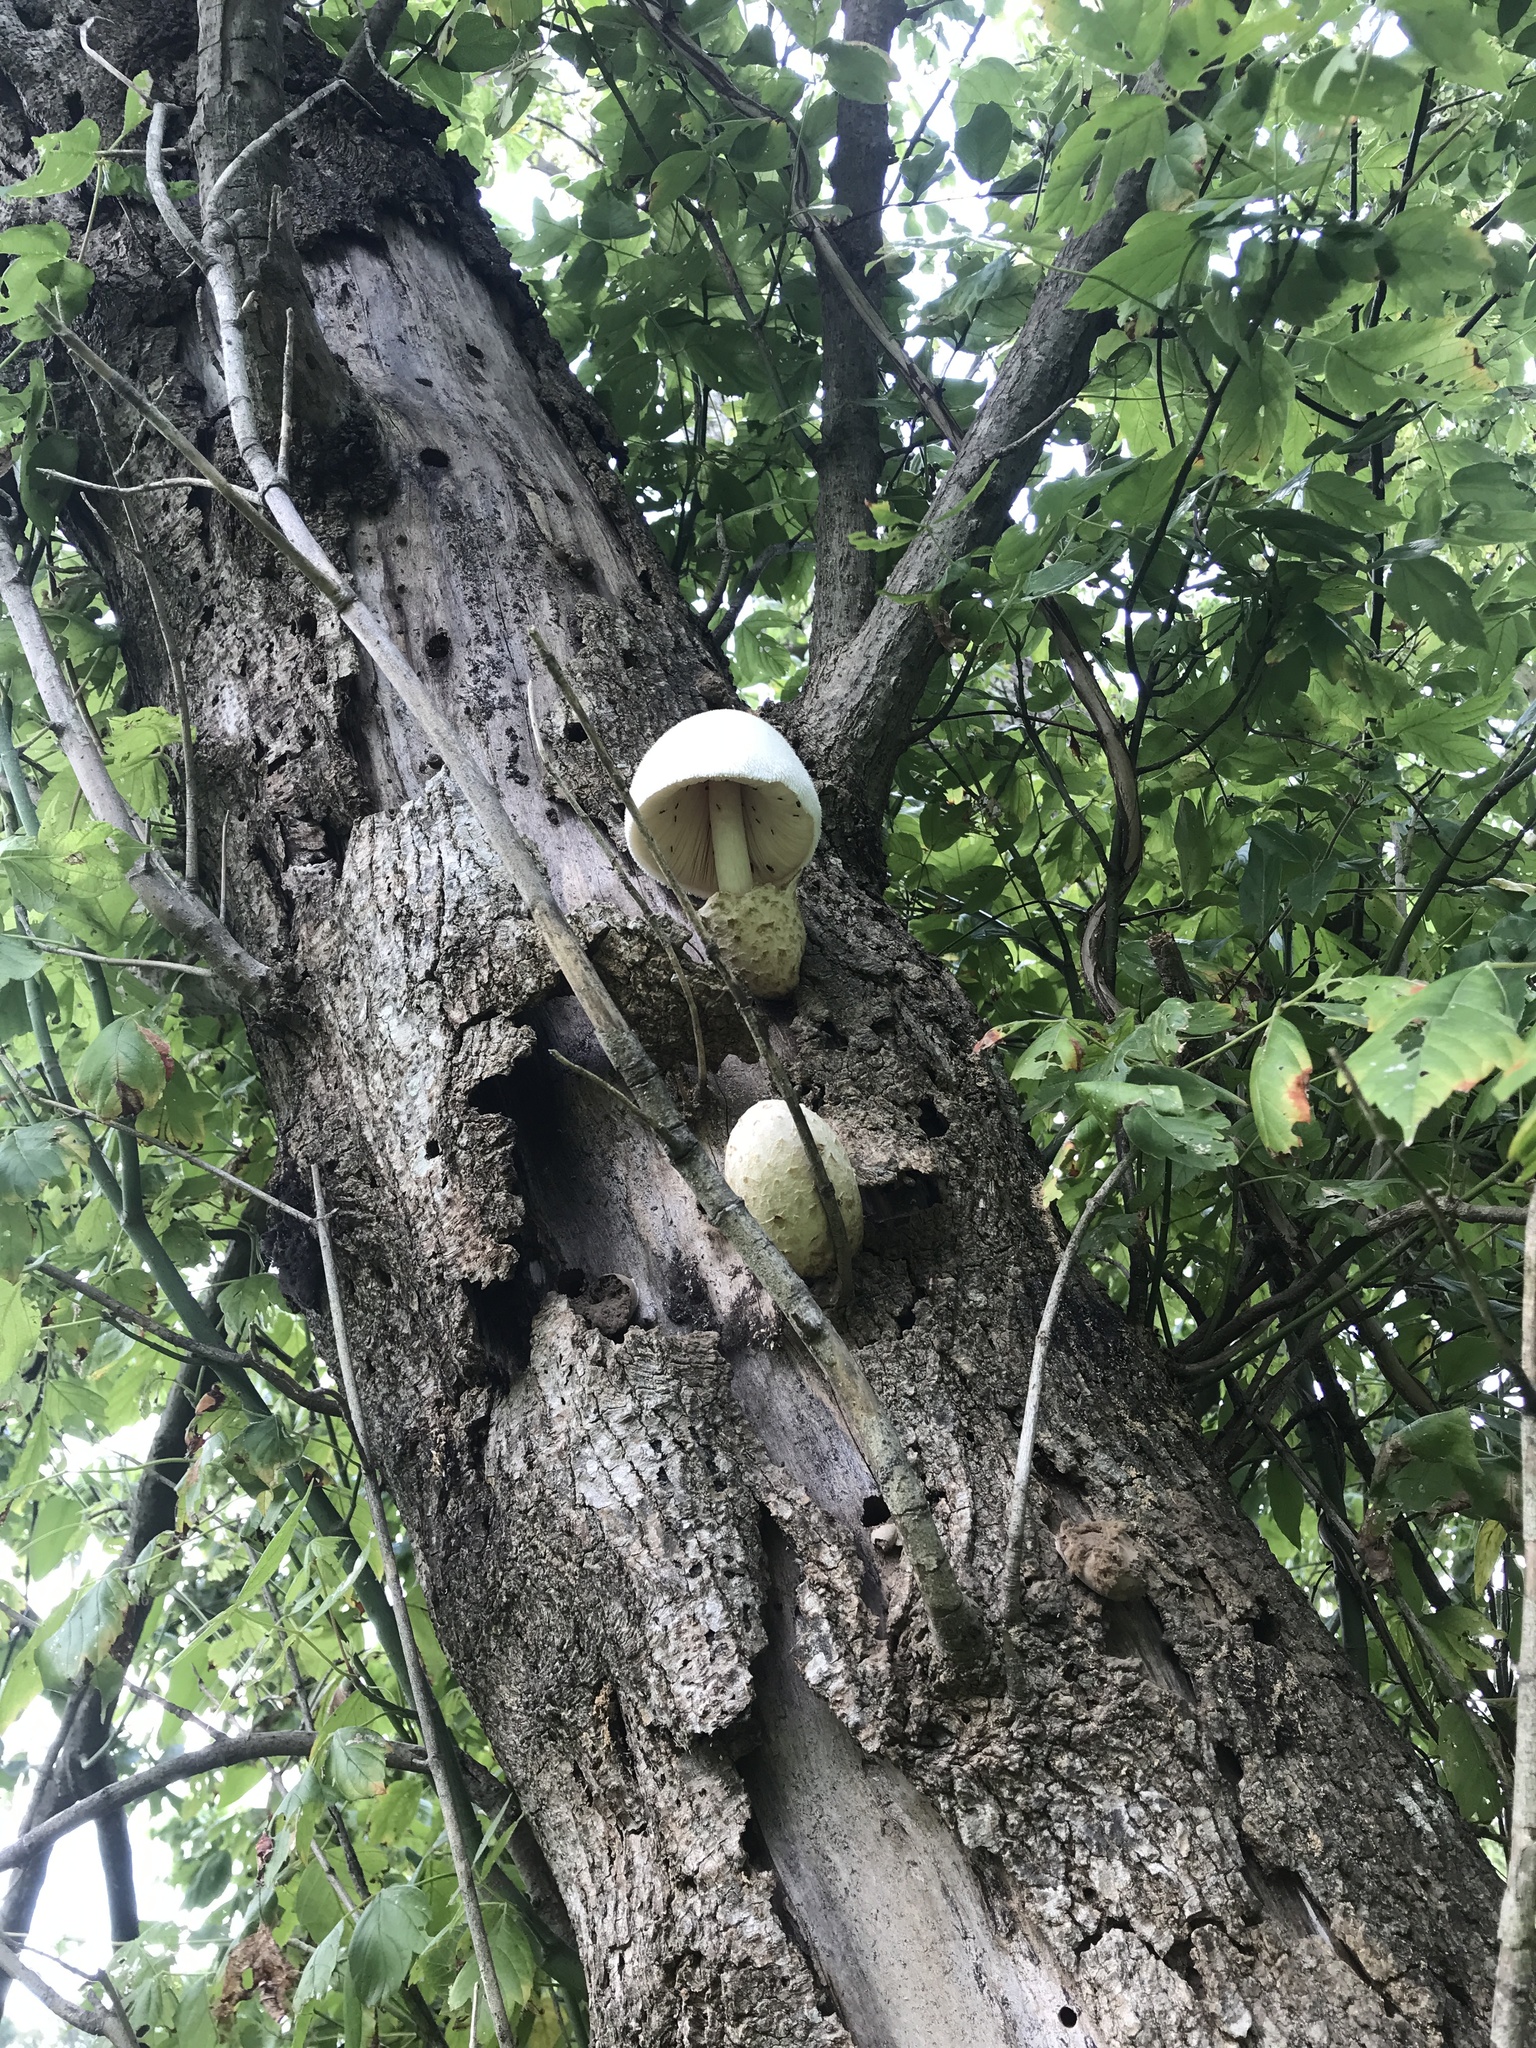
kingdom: Fungi
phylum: Basidiomycota
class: Agaricomycetes
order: Agaricales
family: Pluteaceae
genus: Volvariella
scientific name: Volvariella bombycina
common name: Silky rosegill
